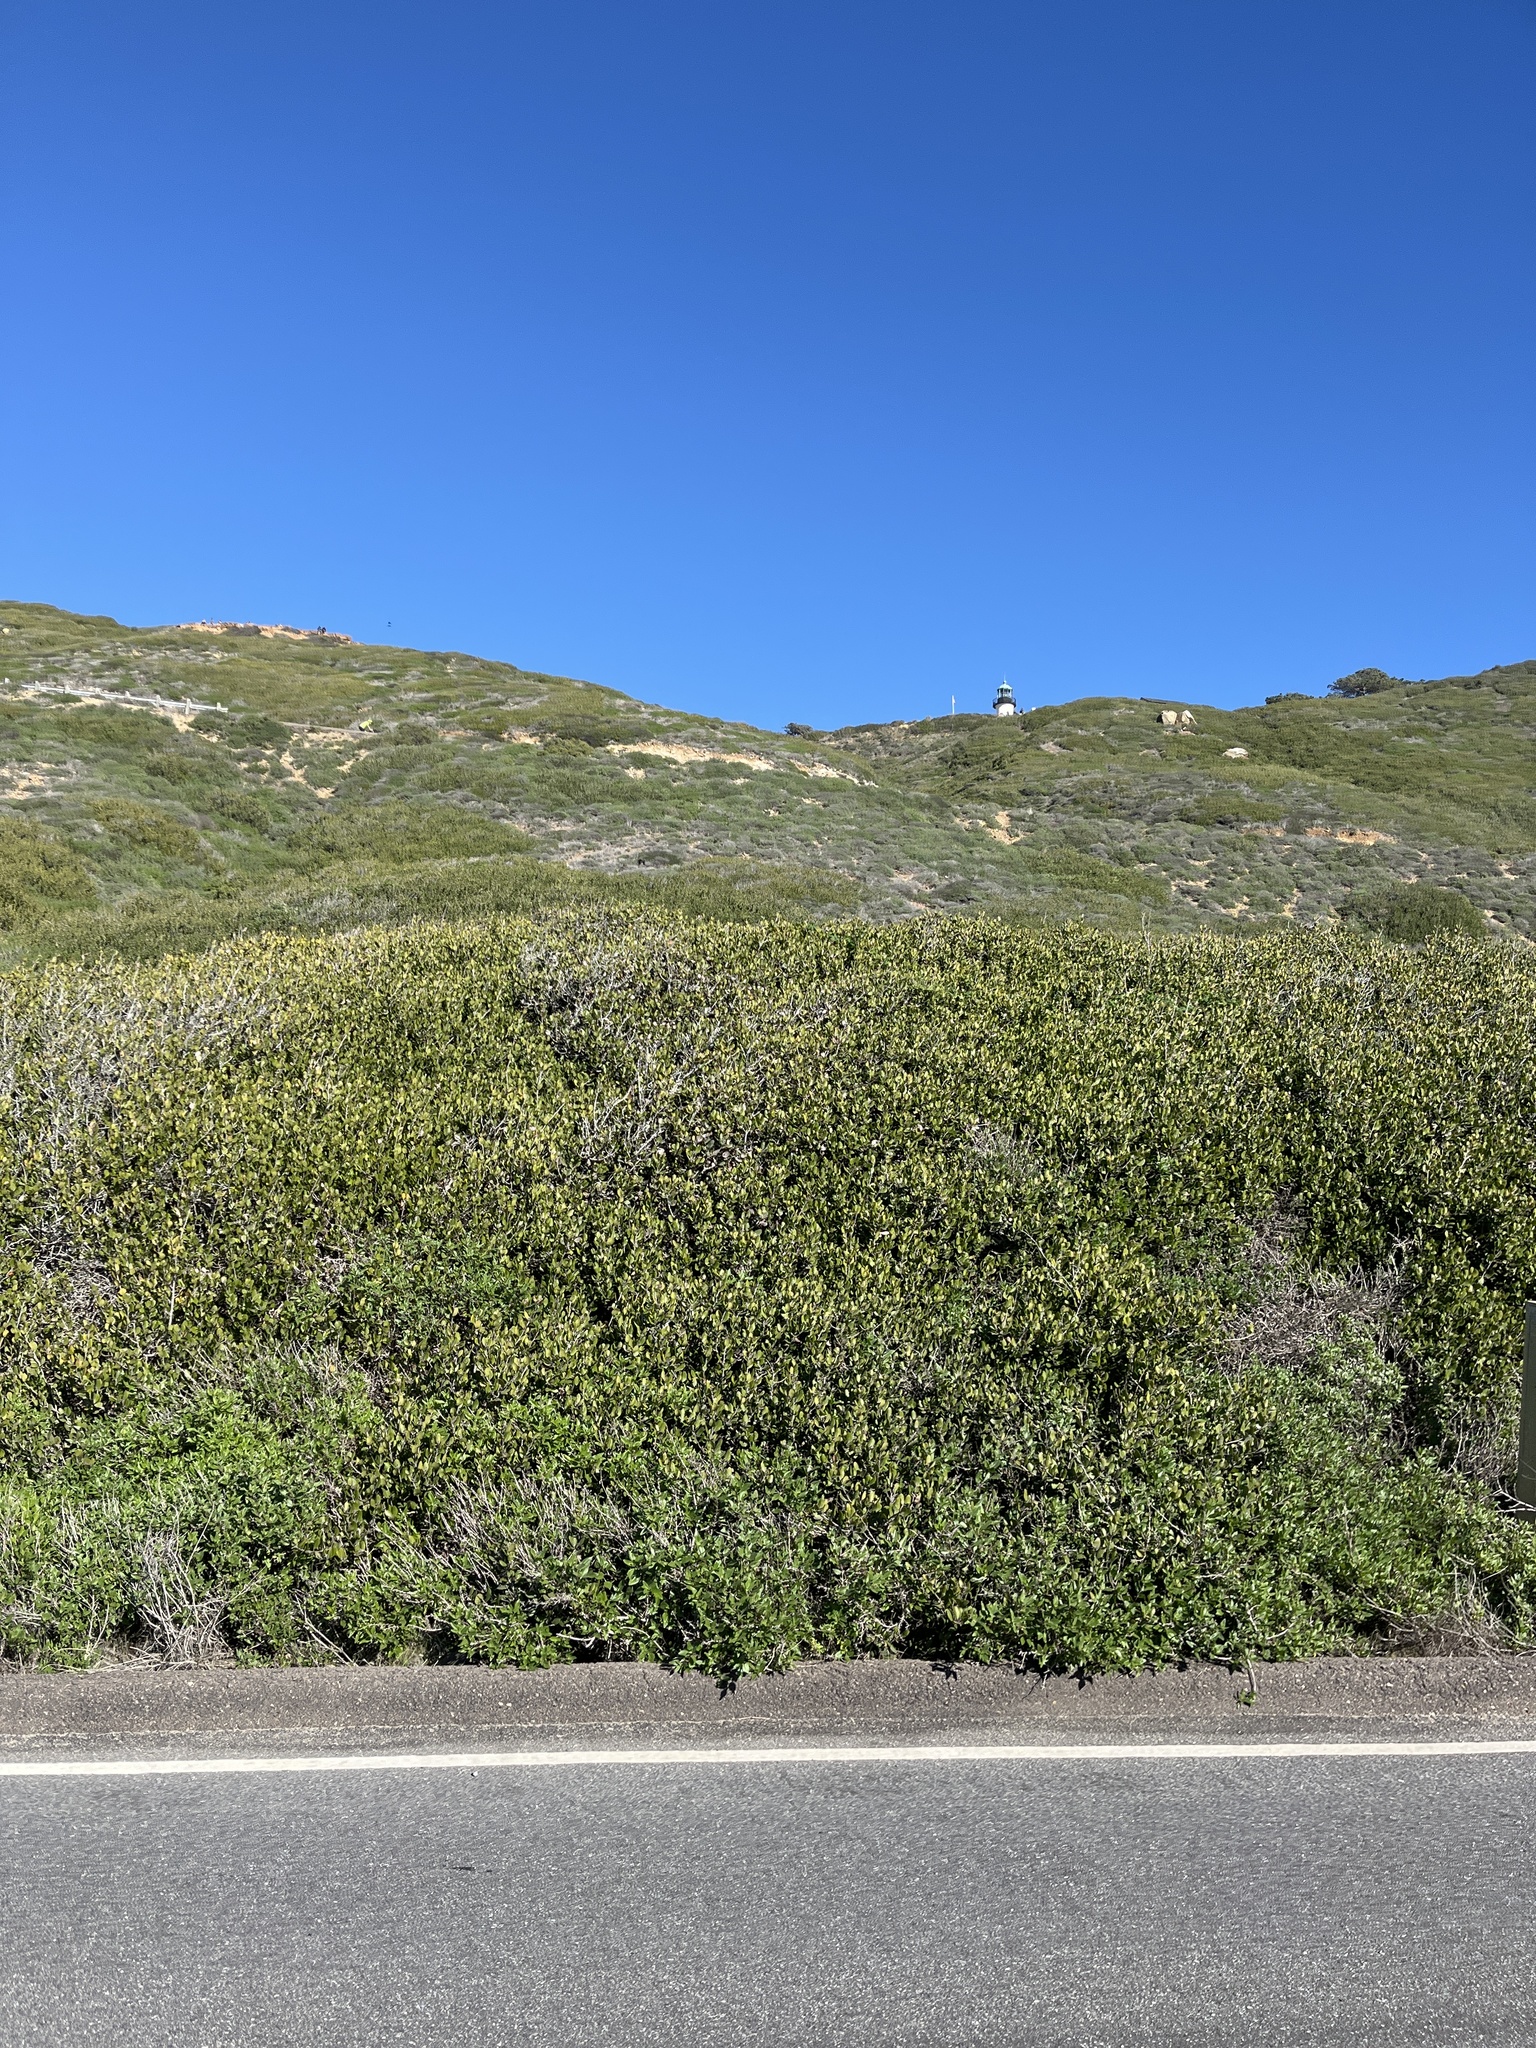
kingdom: Plantae
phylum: Tracheophyta
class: Magnoliopsida
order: Sapindales
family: Anacardiaceae
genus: Rhus
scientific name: Rhus integrifolia
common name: Lemonade sumac
